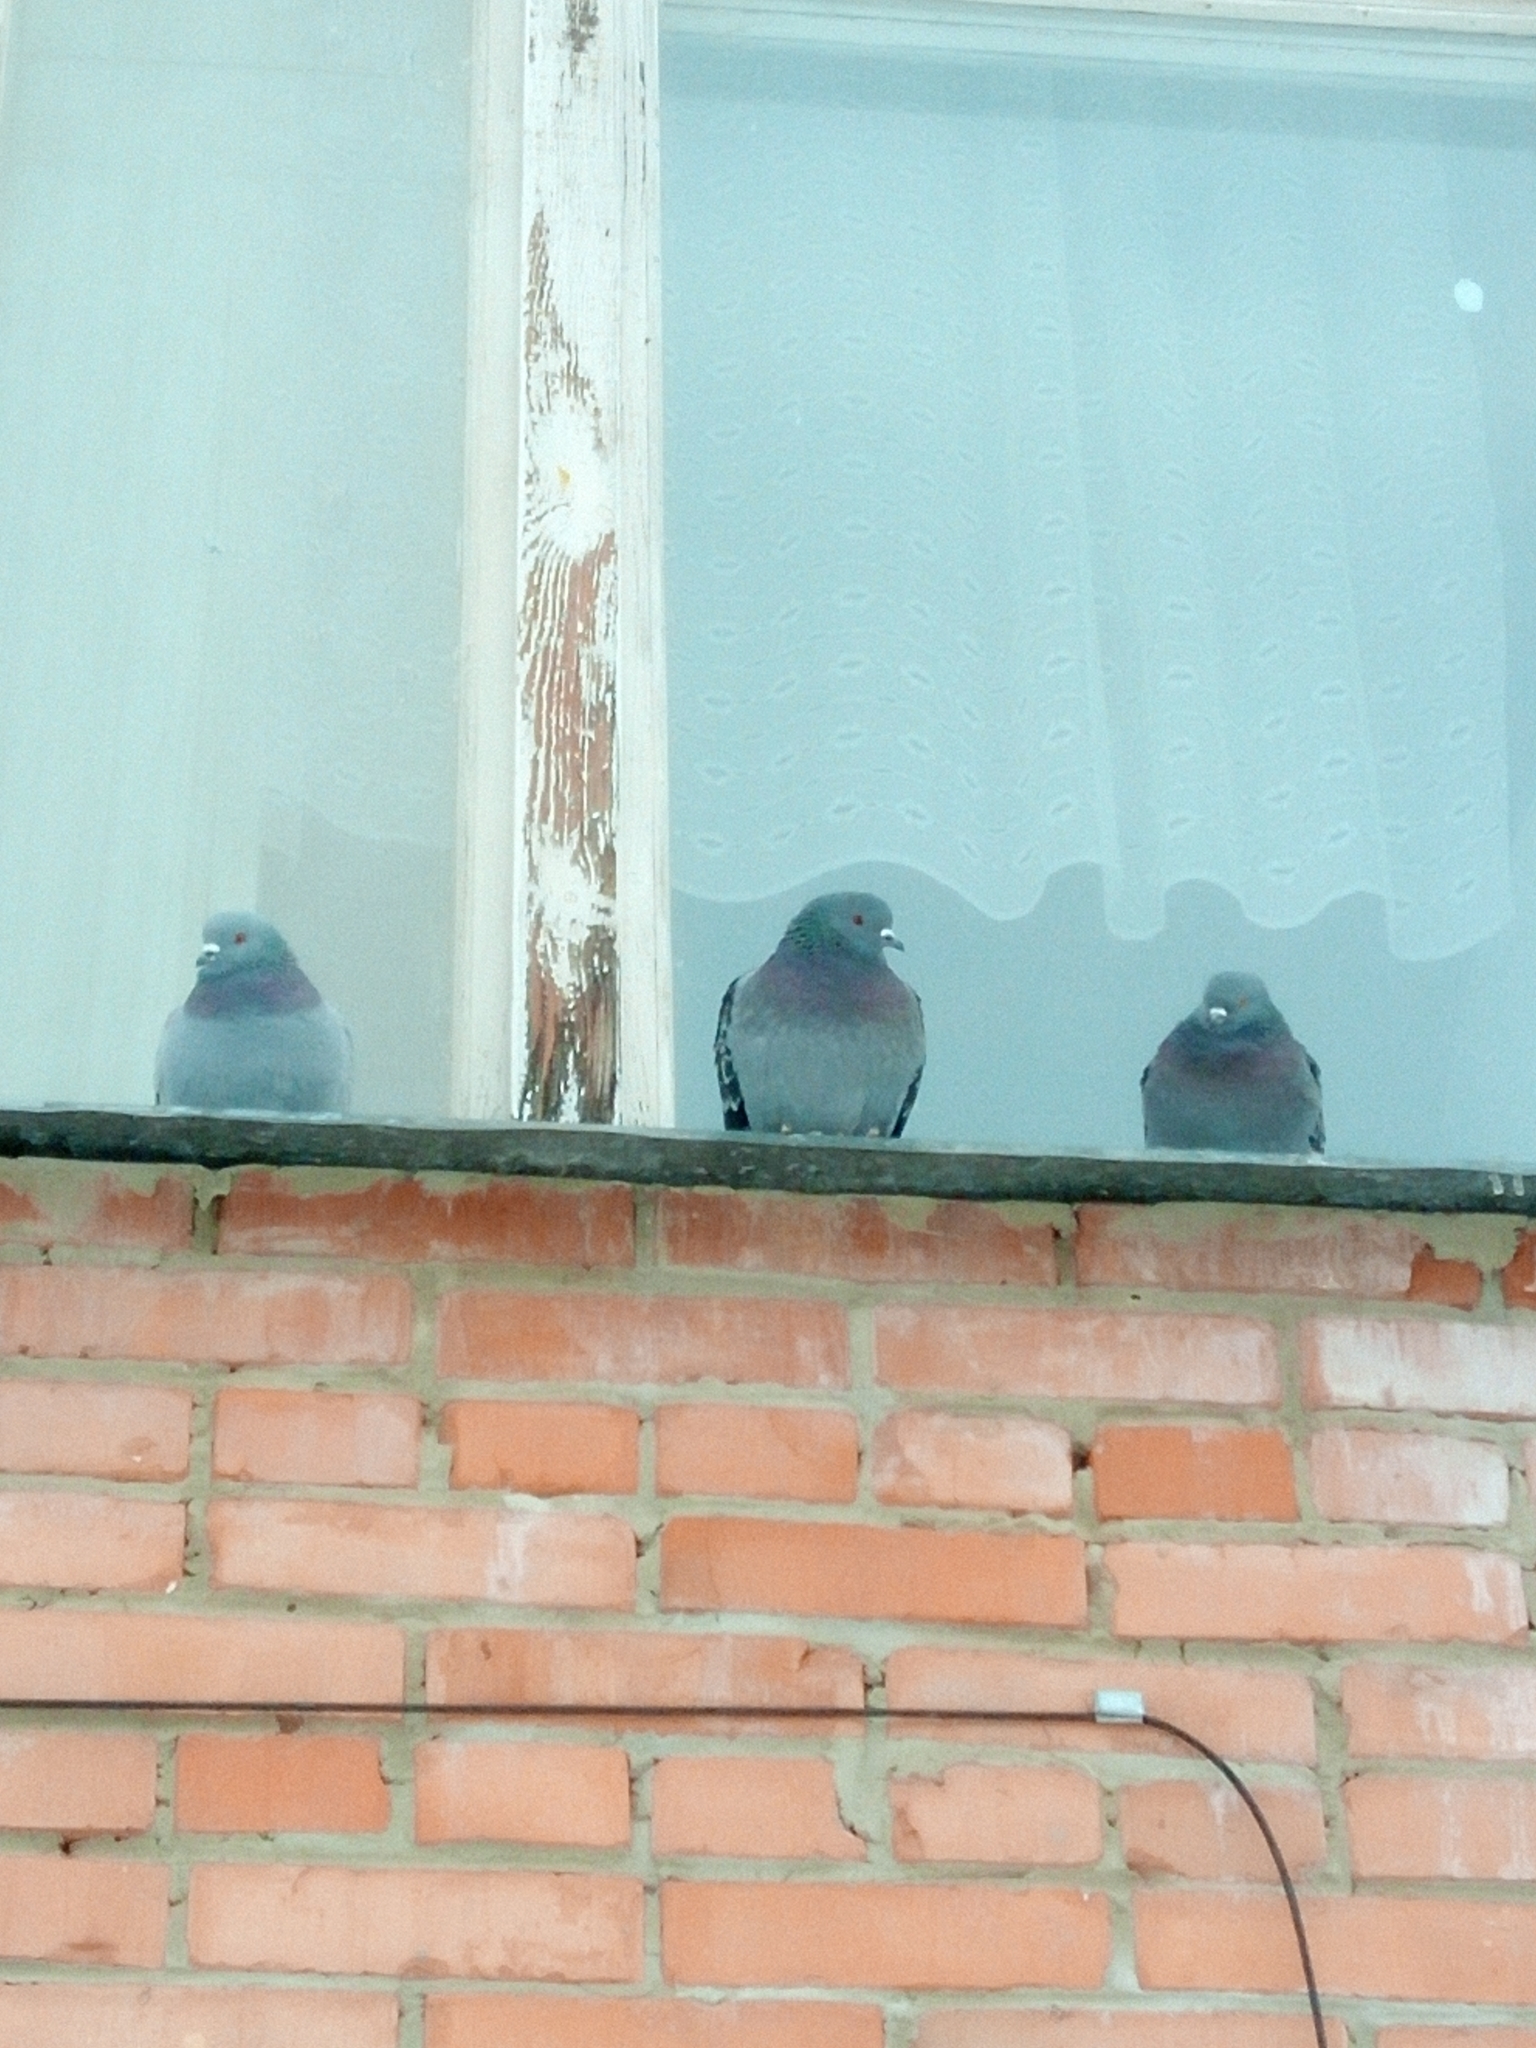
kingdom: Animalia
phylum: Chordata
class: Aves
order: Columbiformes
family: Columbidae
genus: Columba
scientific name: Columba livia
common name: Rock pigeon
